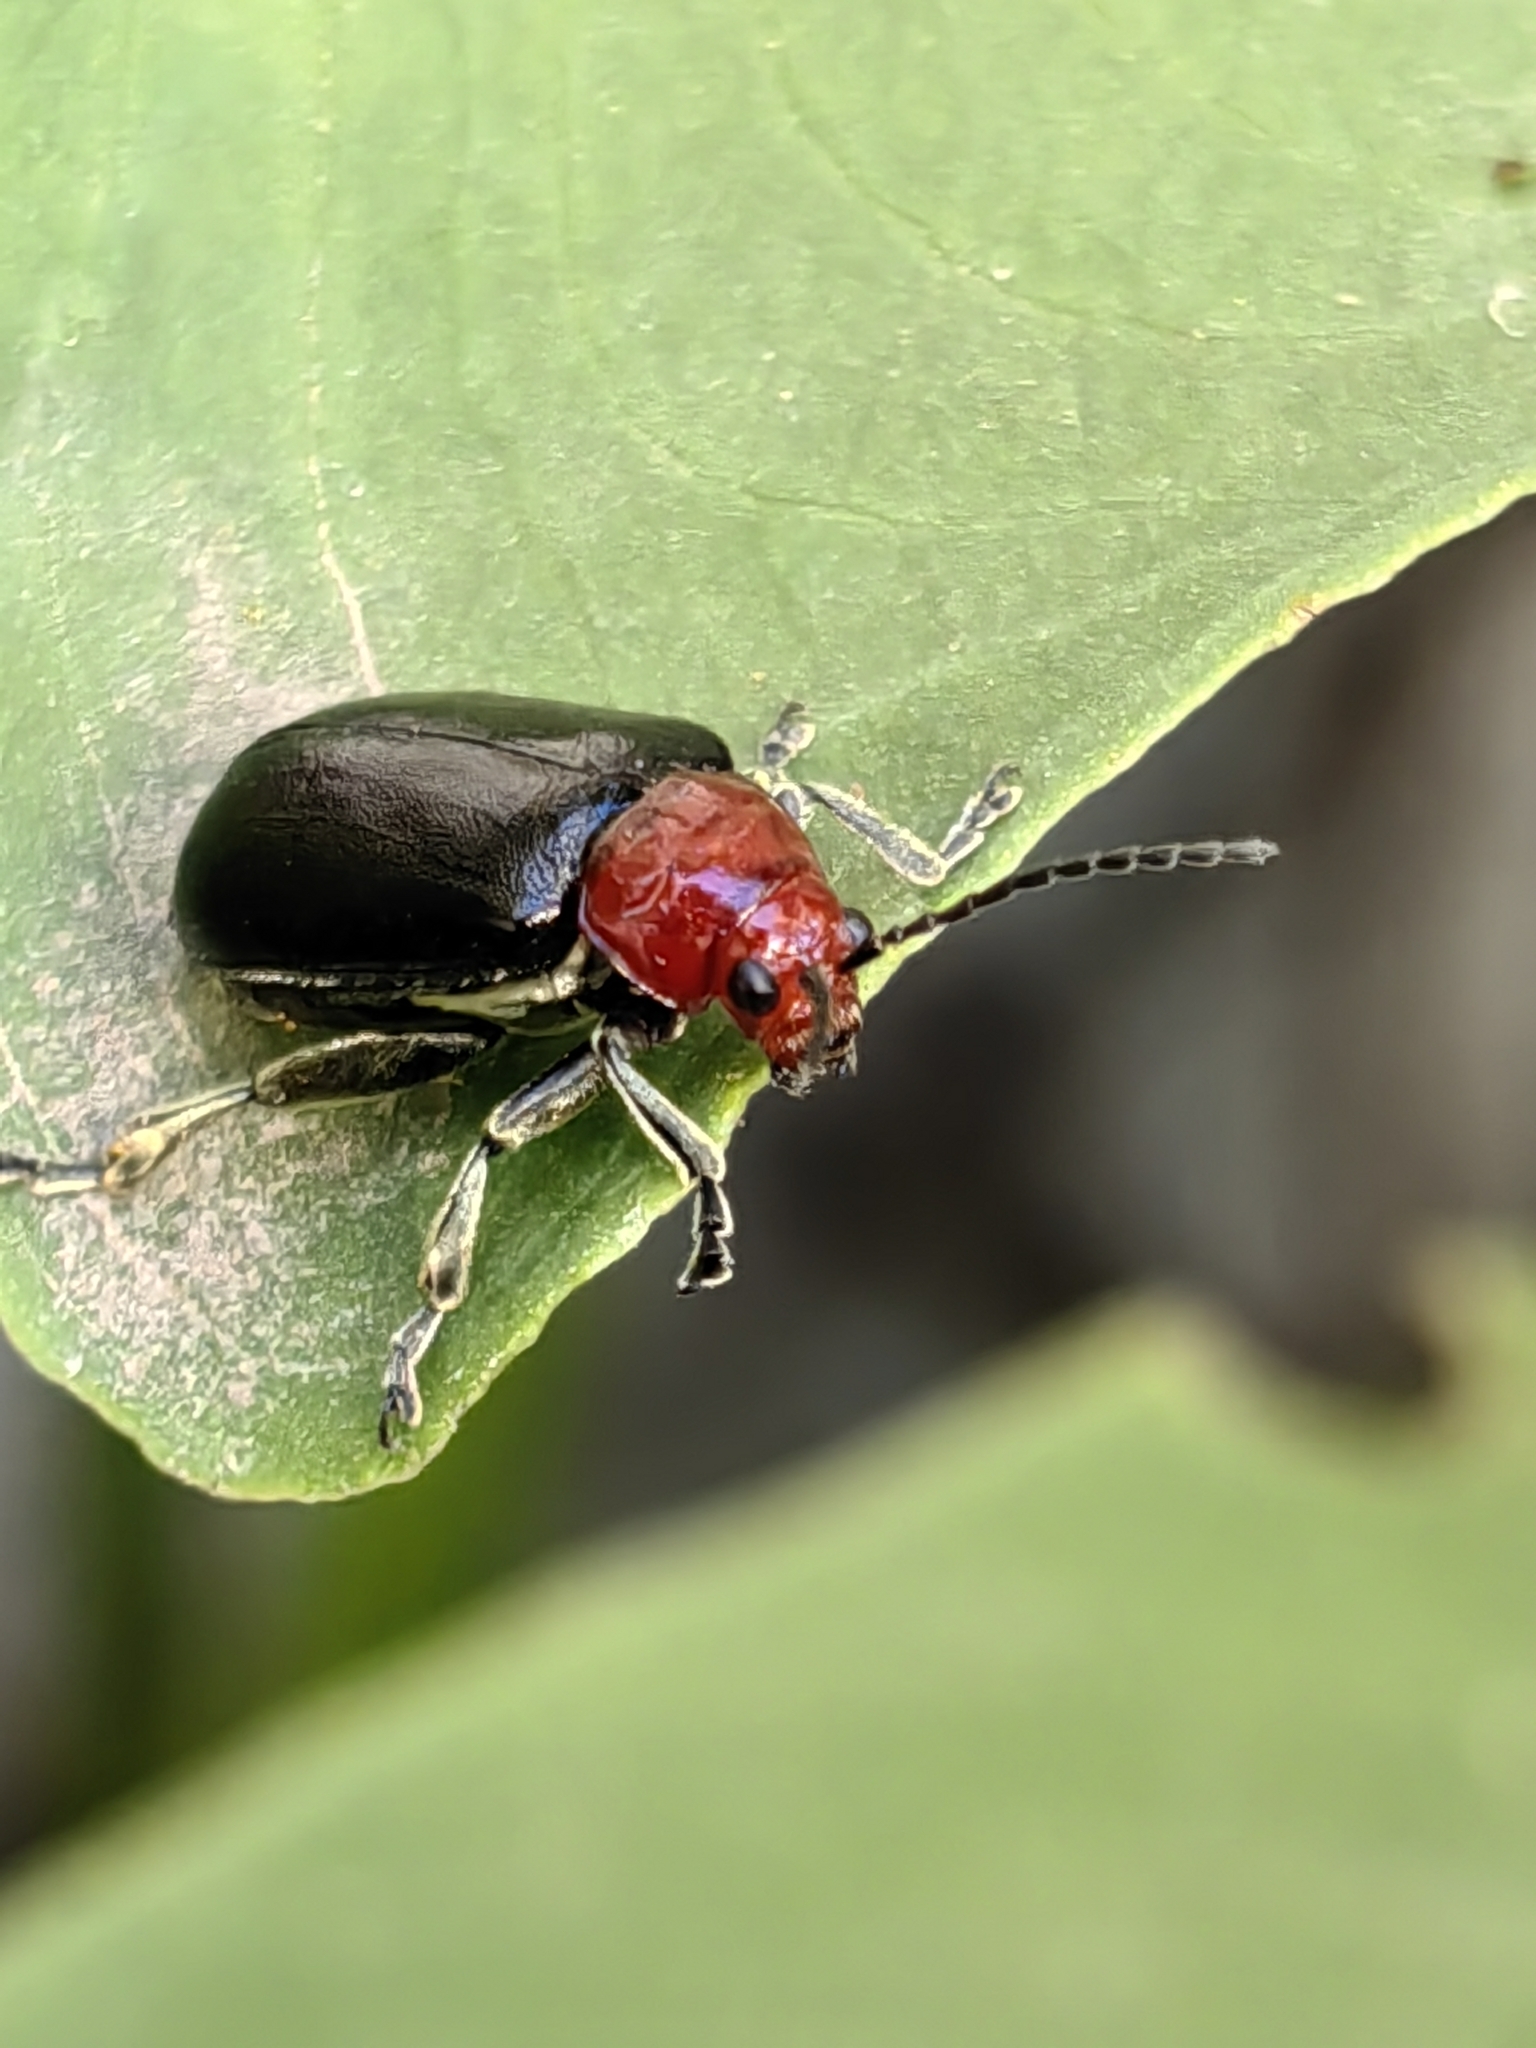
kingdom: Animalia
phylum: Arthropoda
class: Insecta
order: Coleoptera
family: Chrysomelidae
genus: Cacoscelis
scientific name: Cacoscelis
